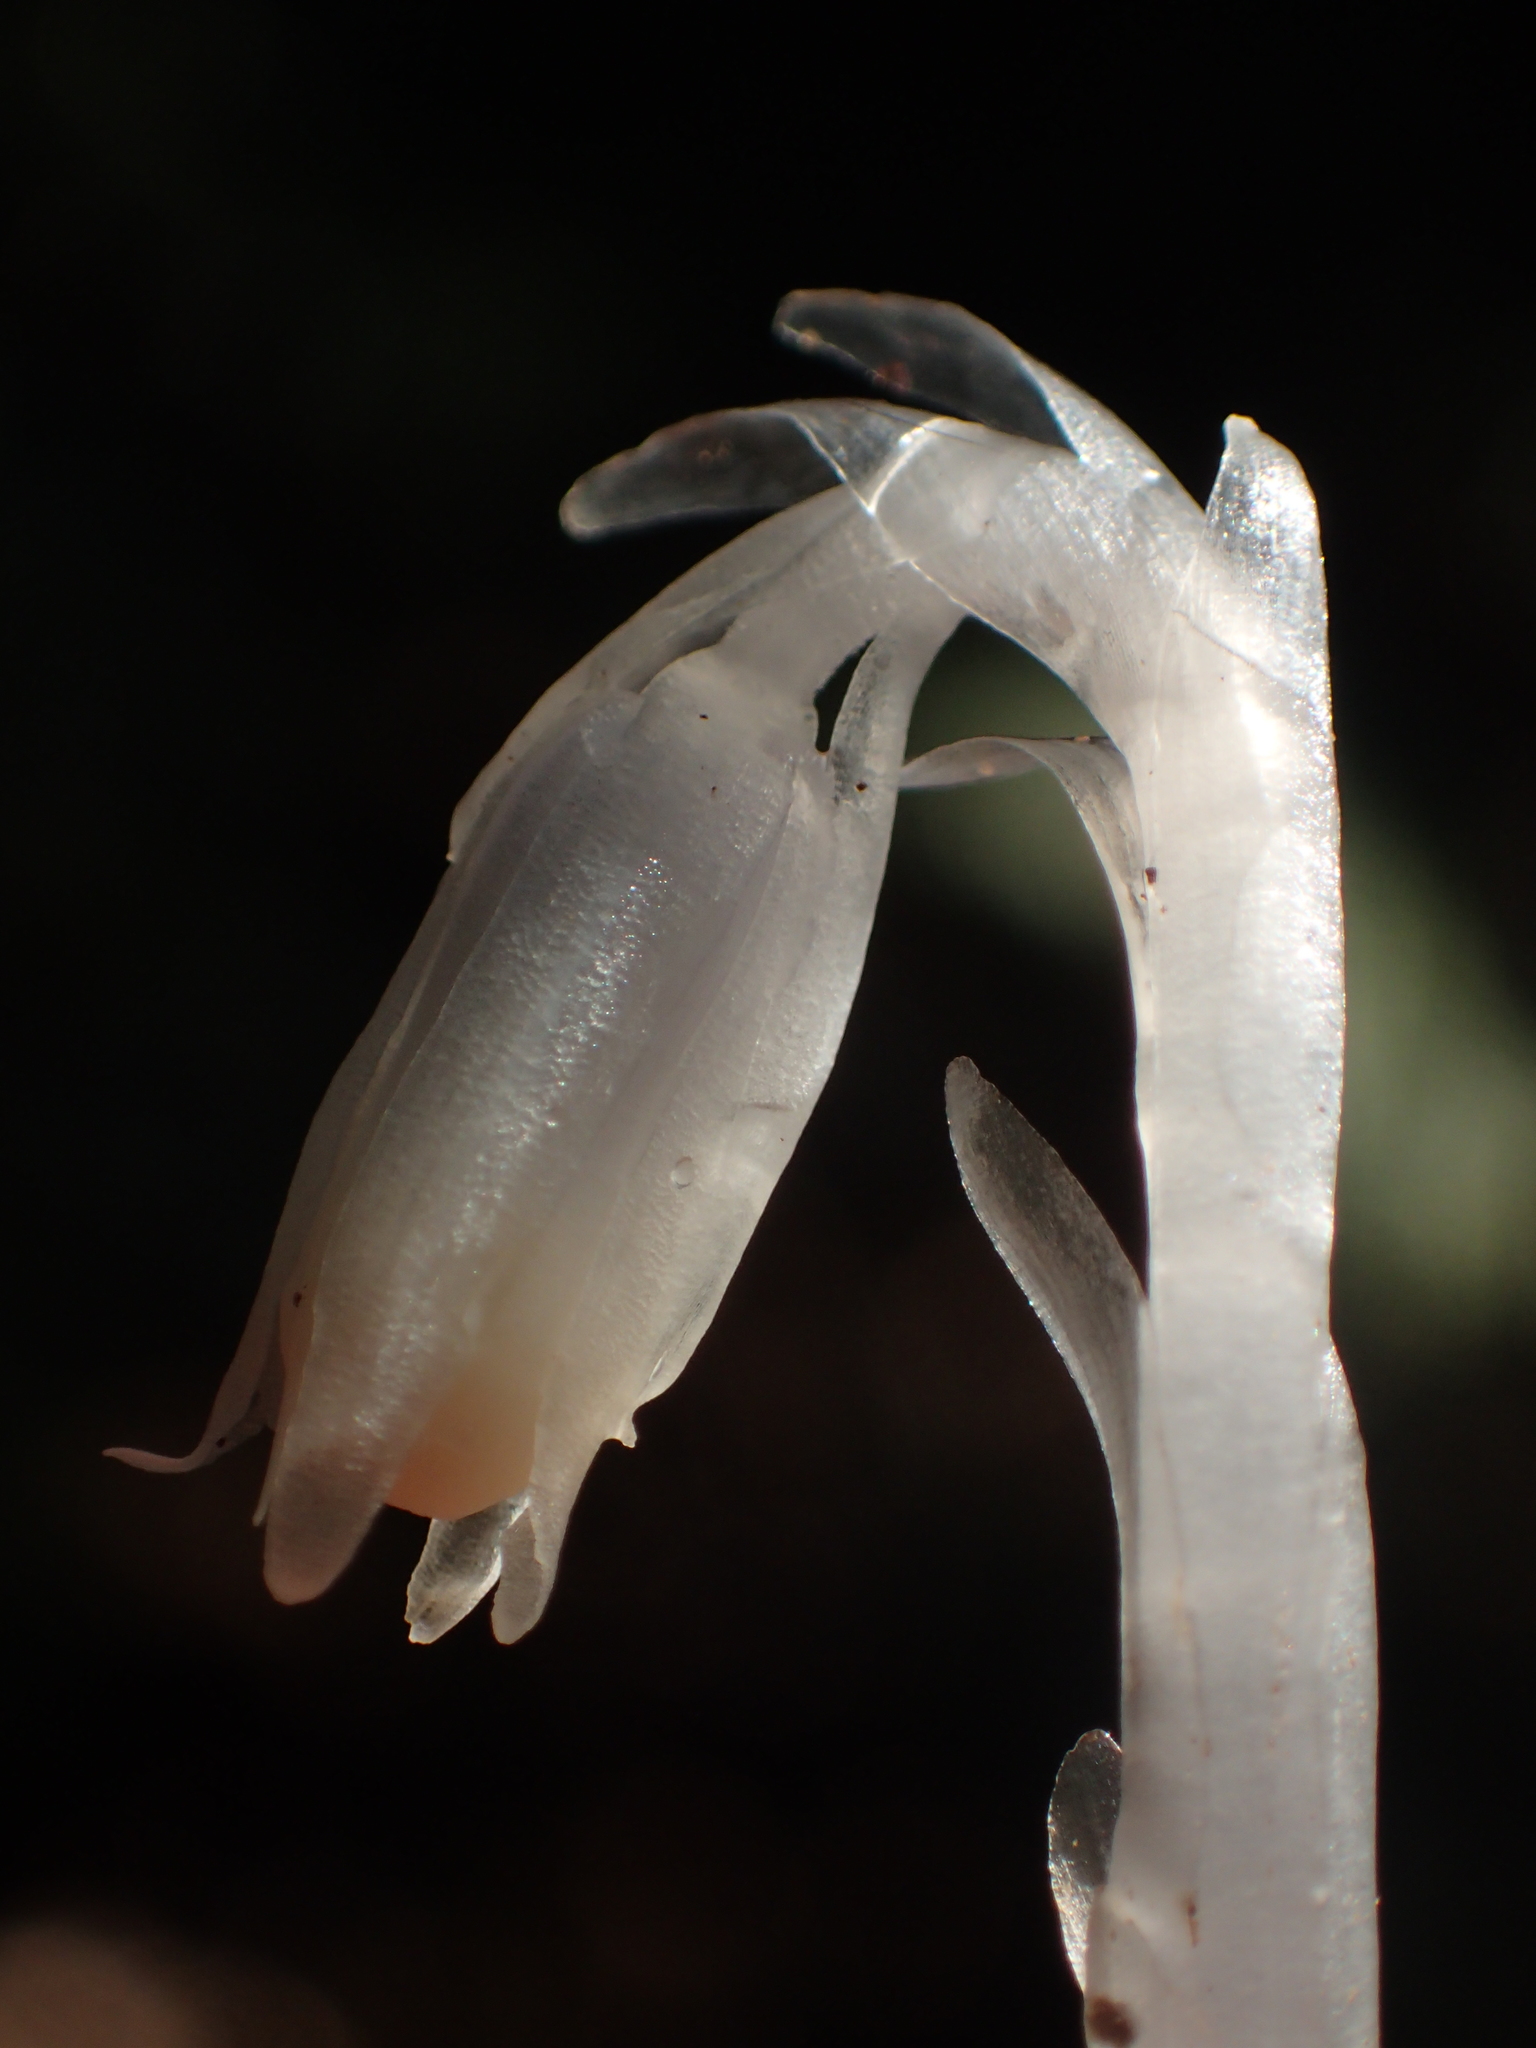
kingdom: Plantae
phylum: Tracheophyta
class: Magnoliopsida
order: Ericales
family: Ericaceae
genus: Monotropastrum
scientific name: Monotropastrum humile
